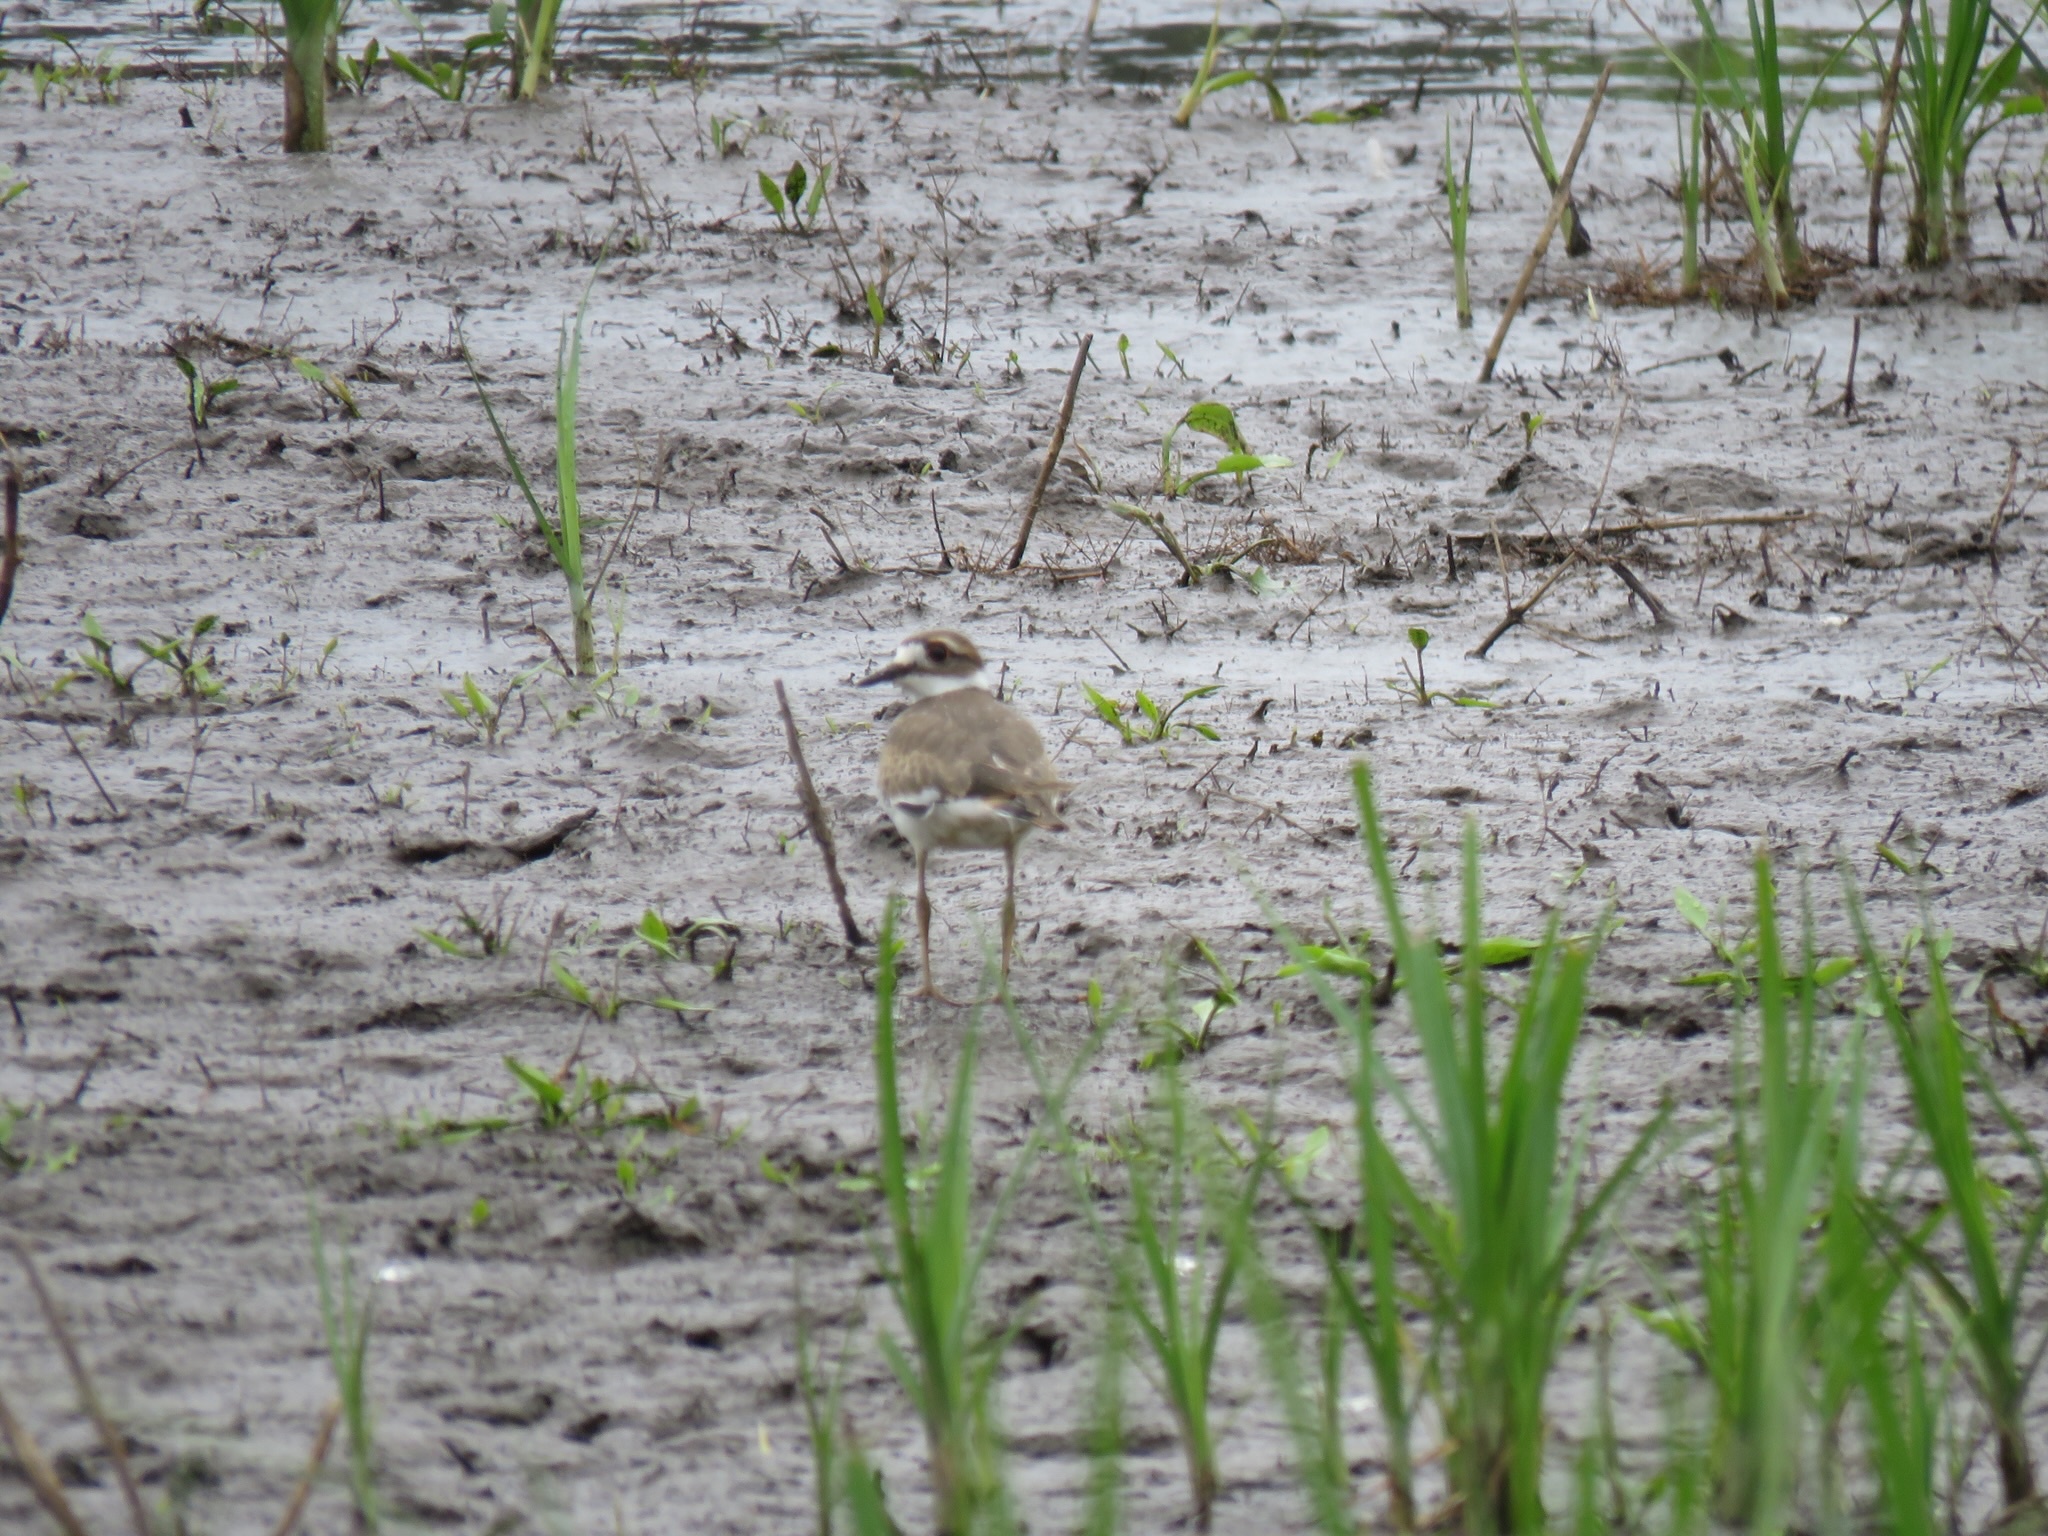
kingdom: Animalia
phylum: Chordata
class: Aves
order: Charadriiformes
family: Charadriidae
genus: Charadrius
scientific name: Charadrius vociferus
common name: Killdeer
